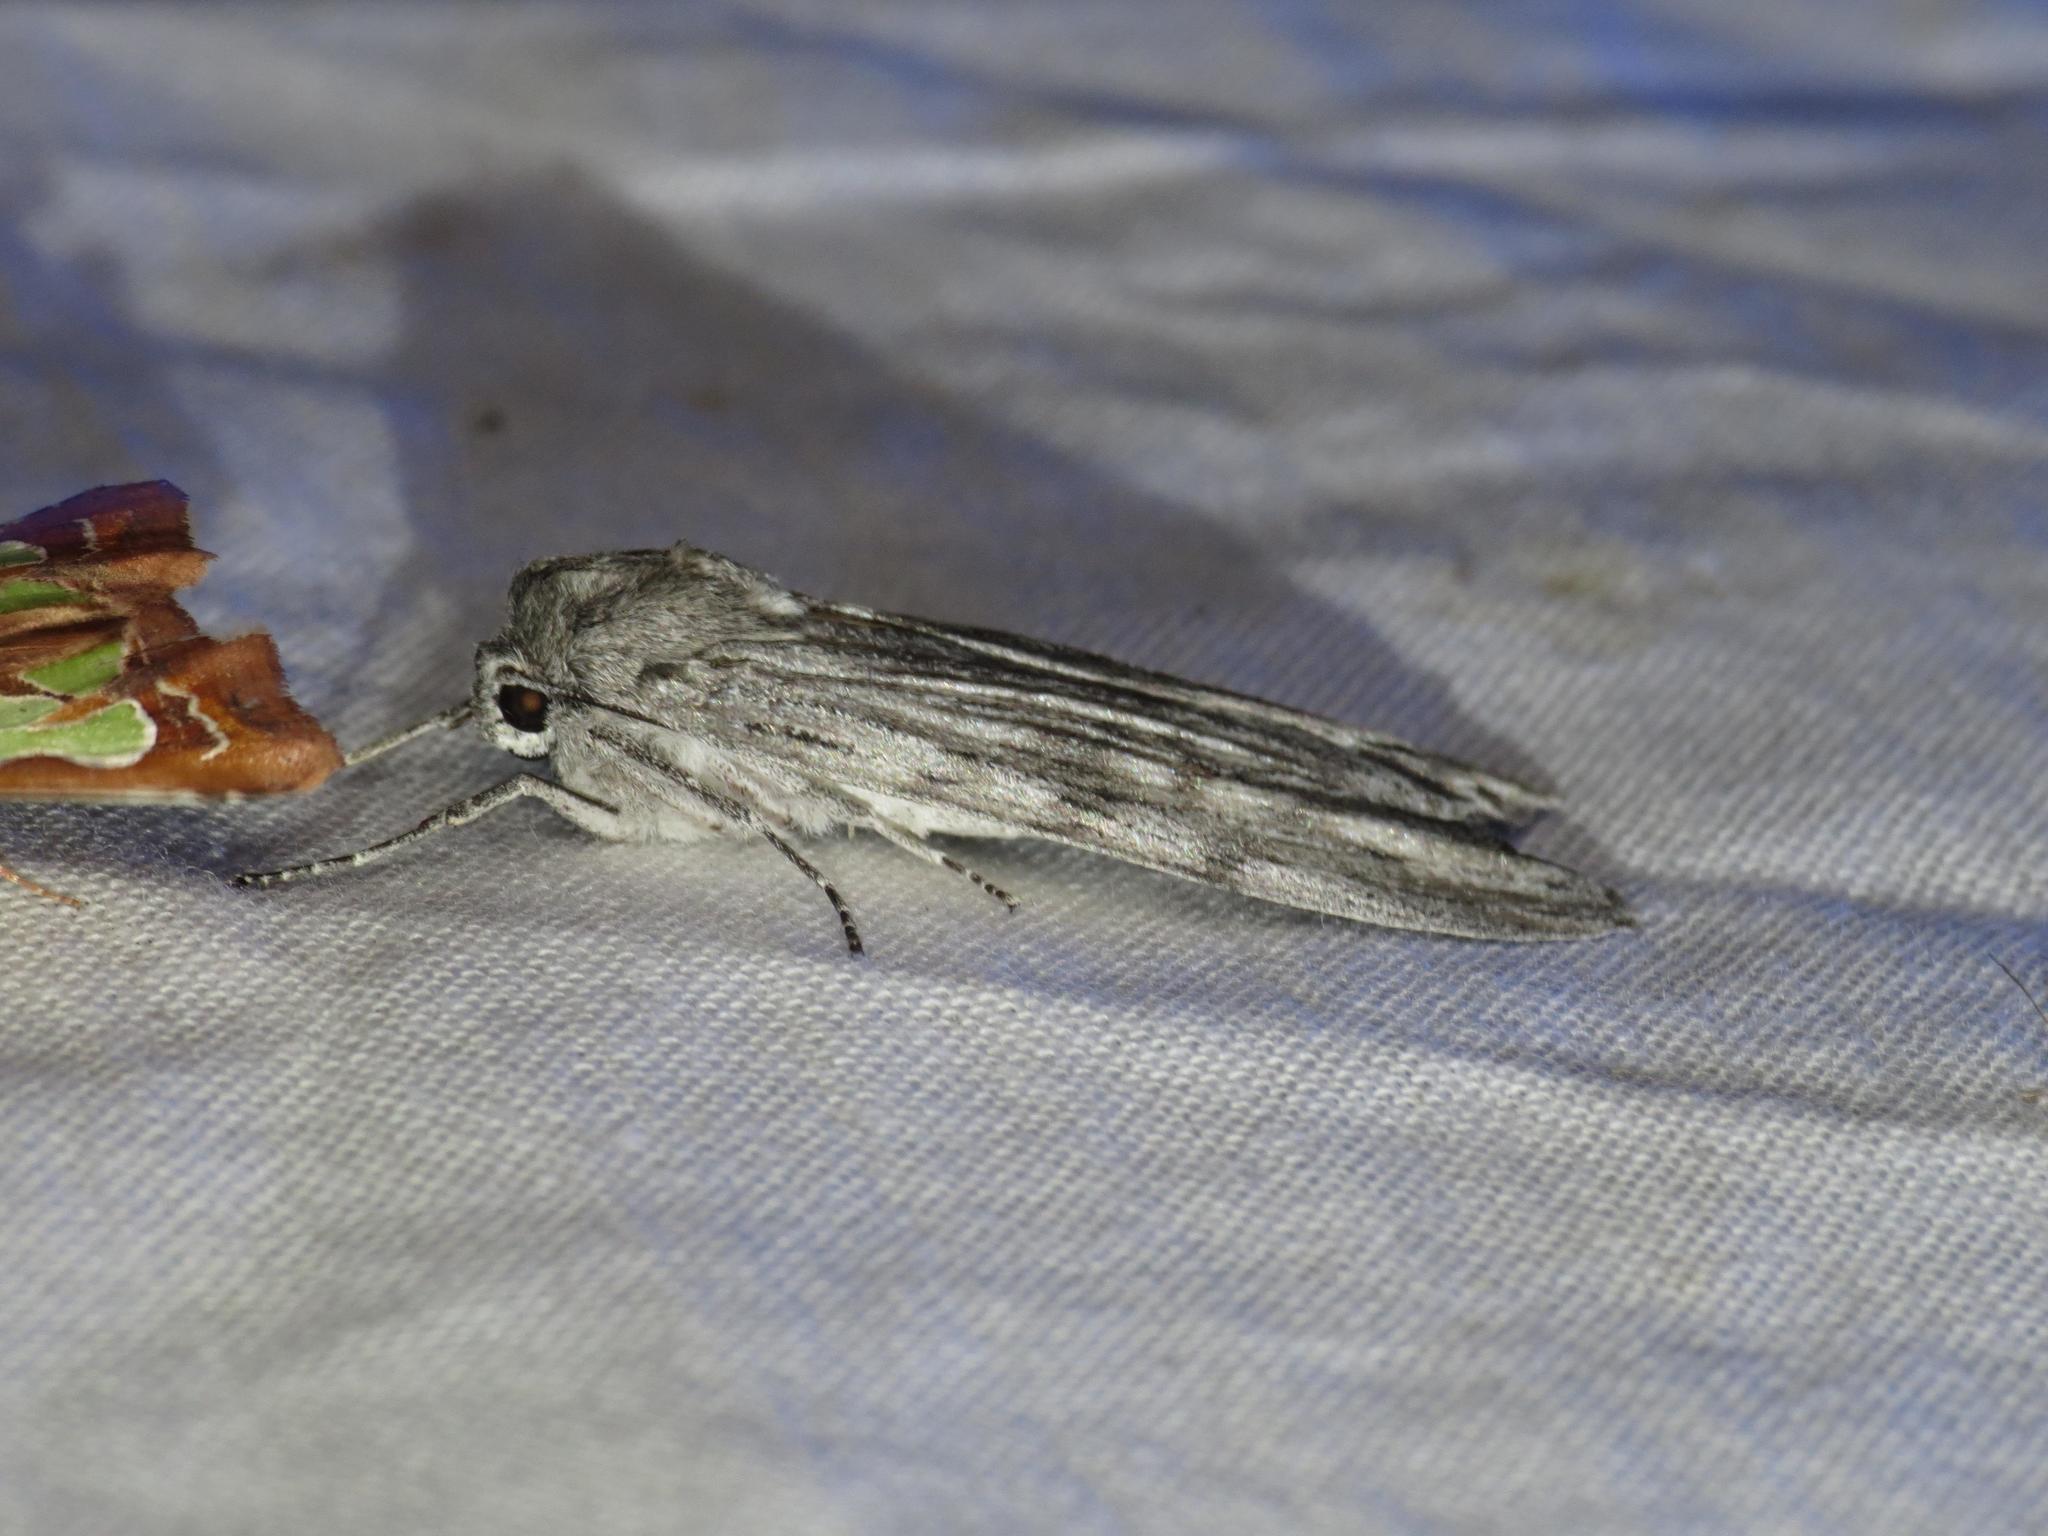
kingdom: Animalia
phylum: Arthropoda
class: Insecta
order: Lepidoptera
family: Geometridae
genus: Capusa
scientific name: Capusa senilis
